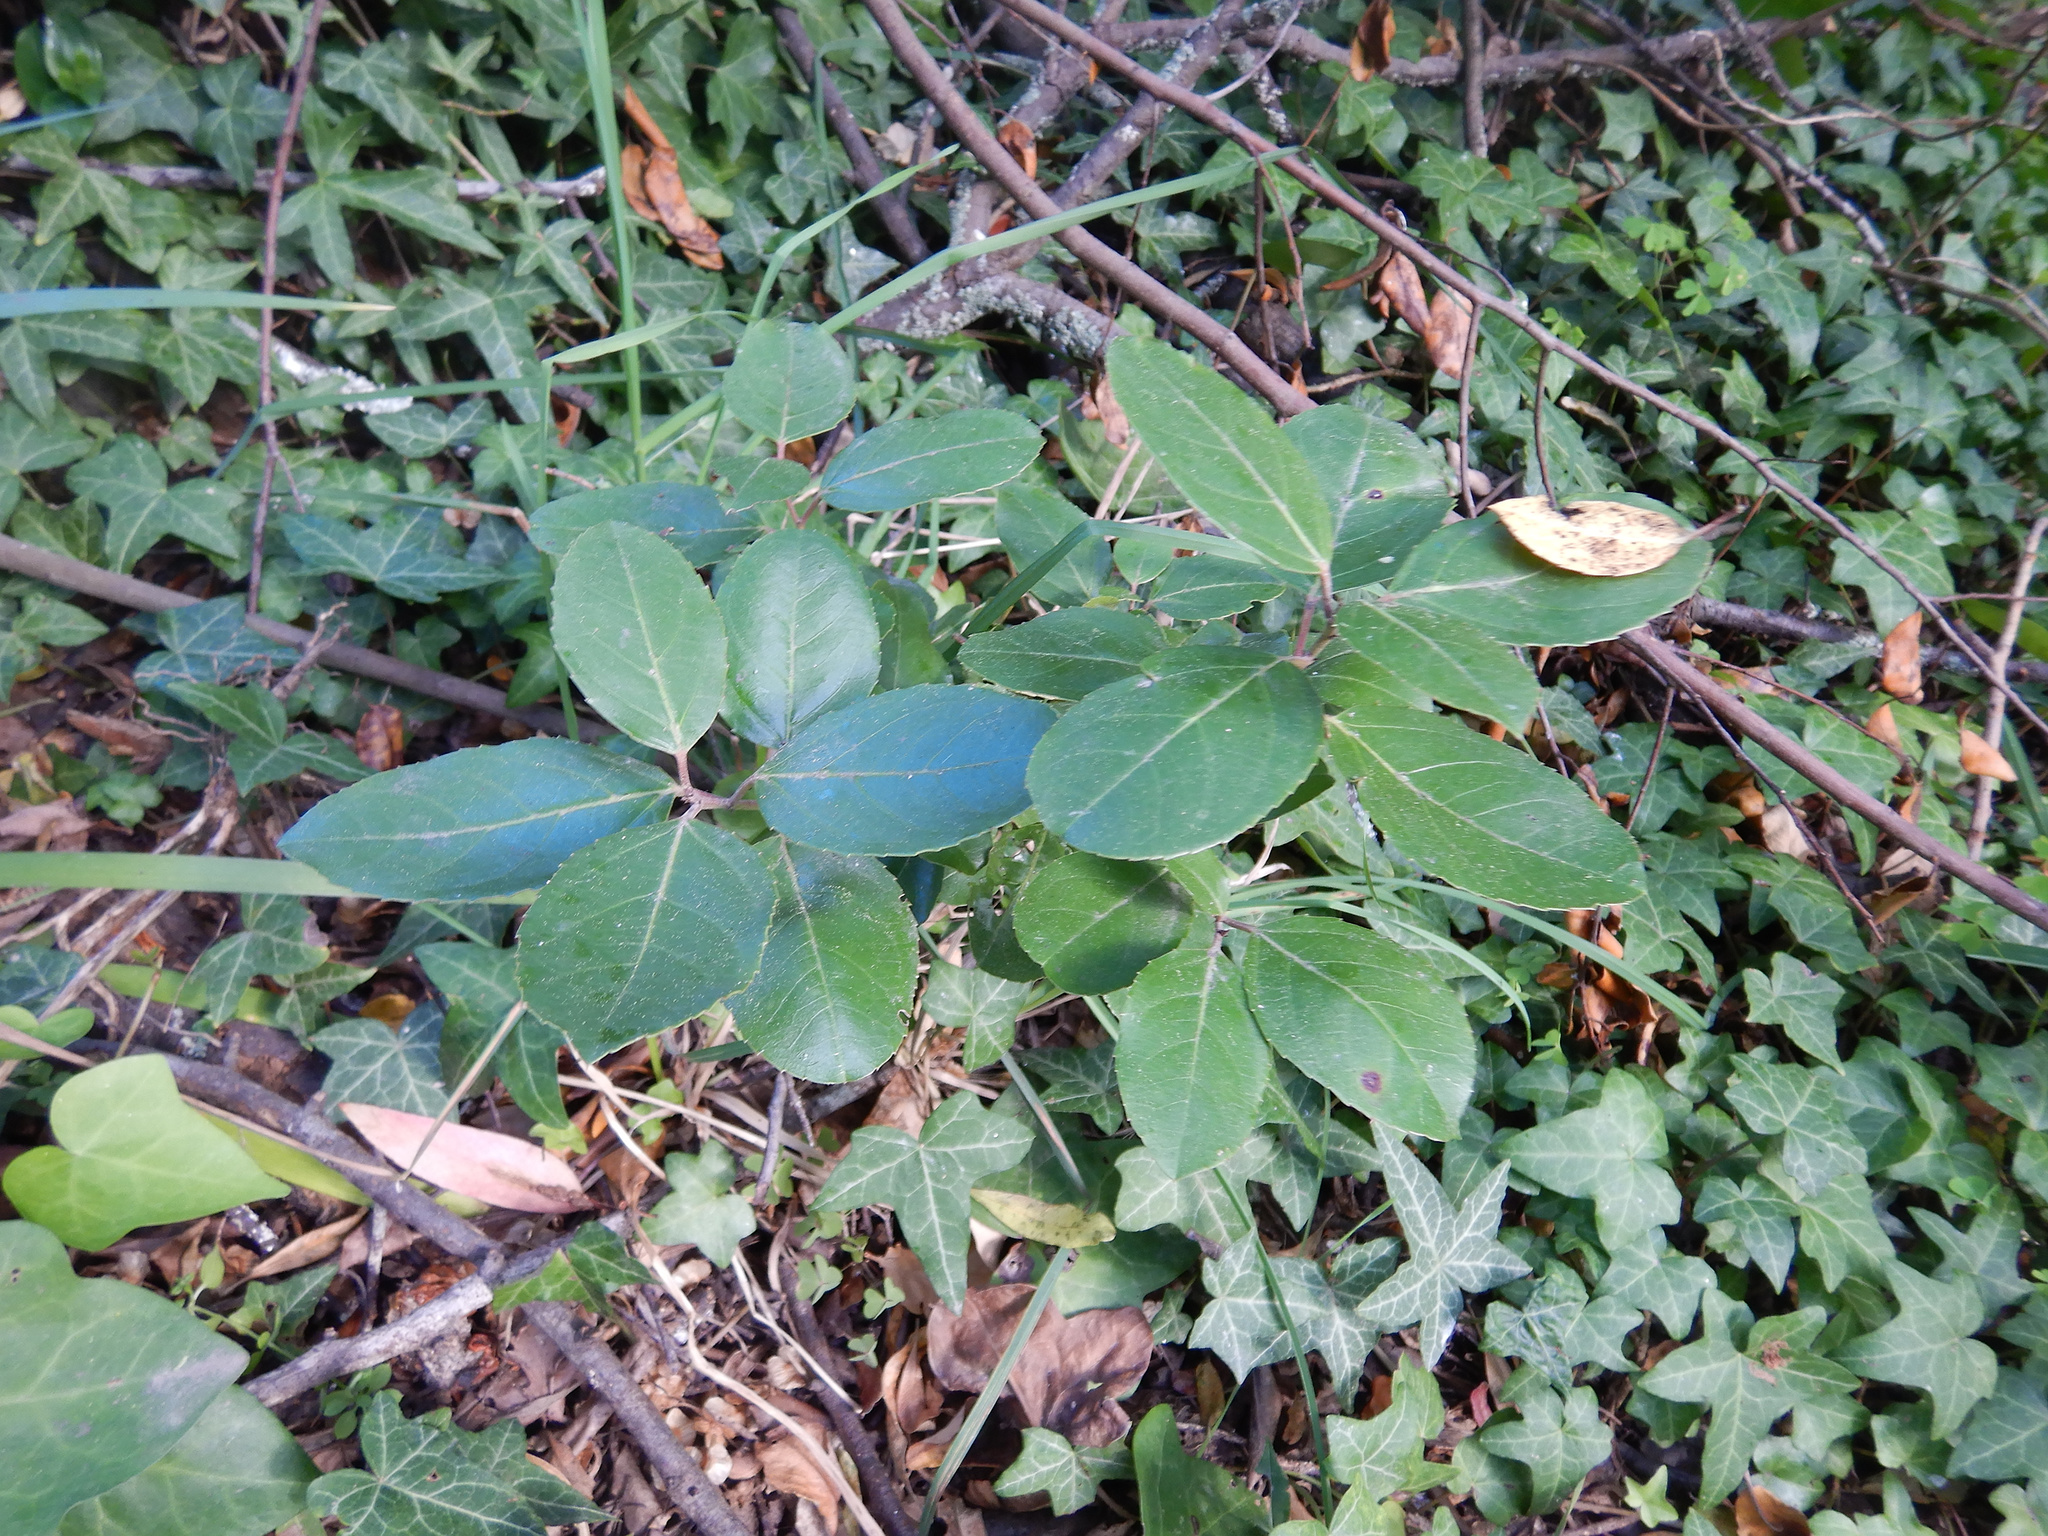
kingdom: Plantae
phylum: Tracheophyta
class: Magnoliopsida
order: Rosales
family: Rhamnaceae
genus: Rhamnus
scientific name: Rhamnus alaternus
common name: Mediterranean buckthorn
